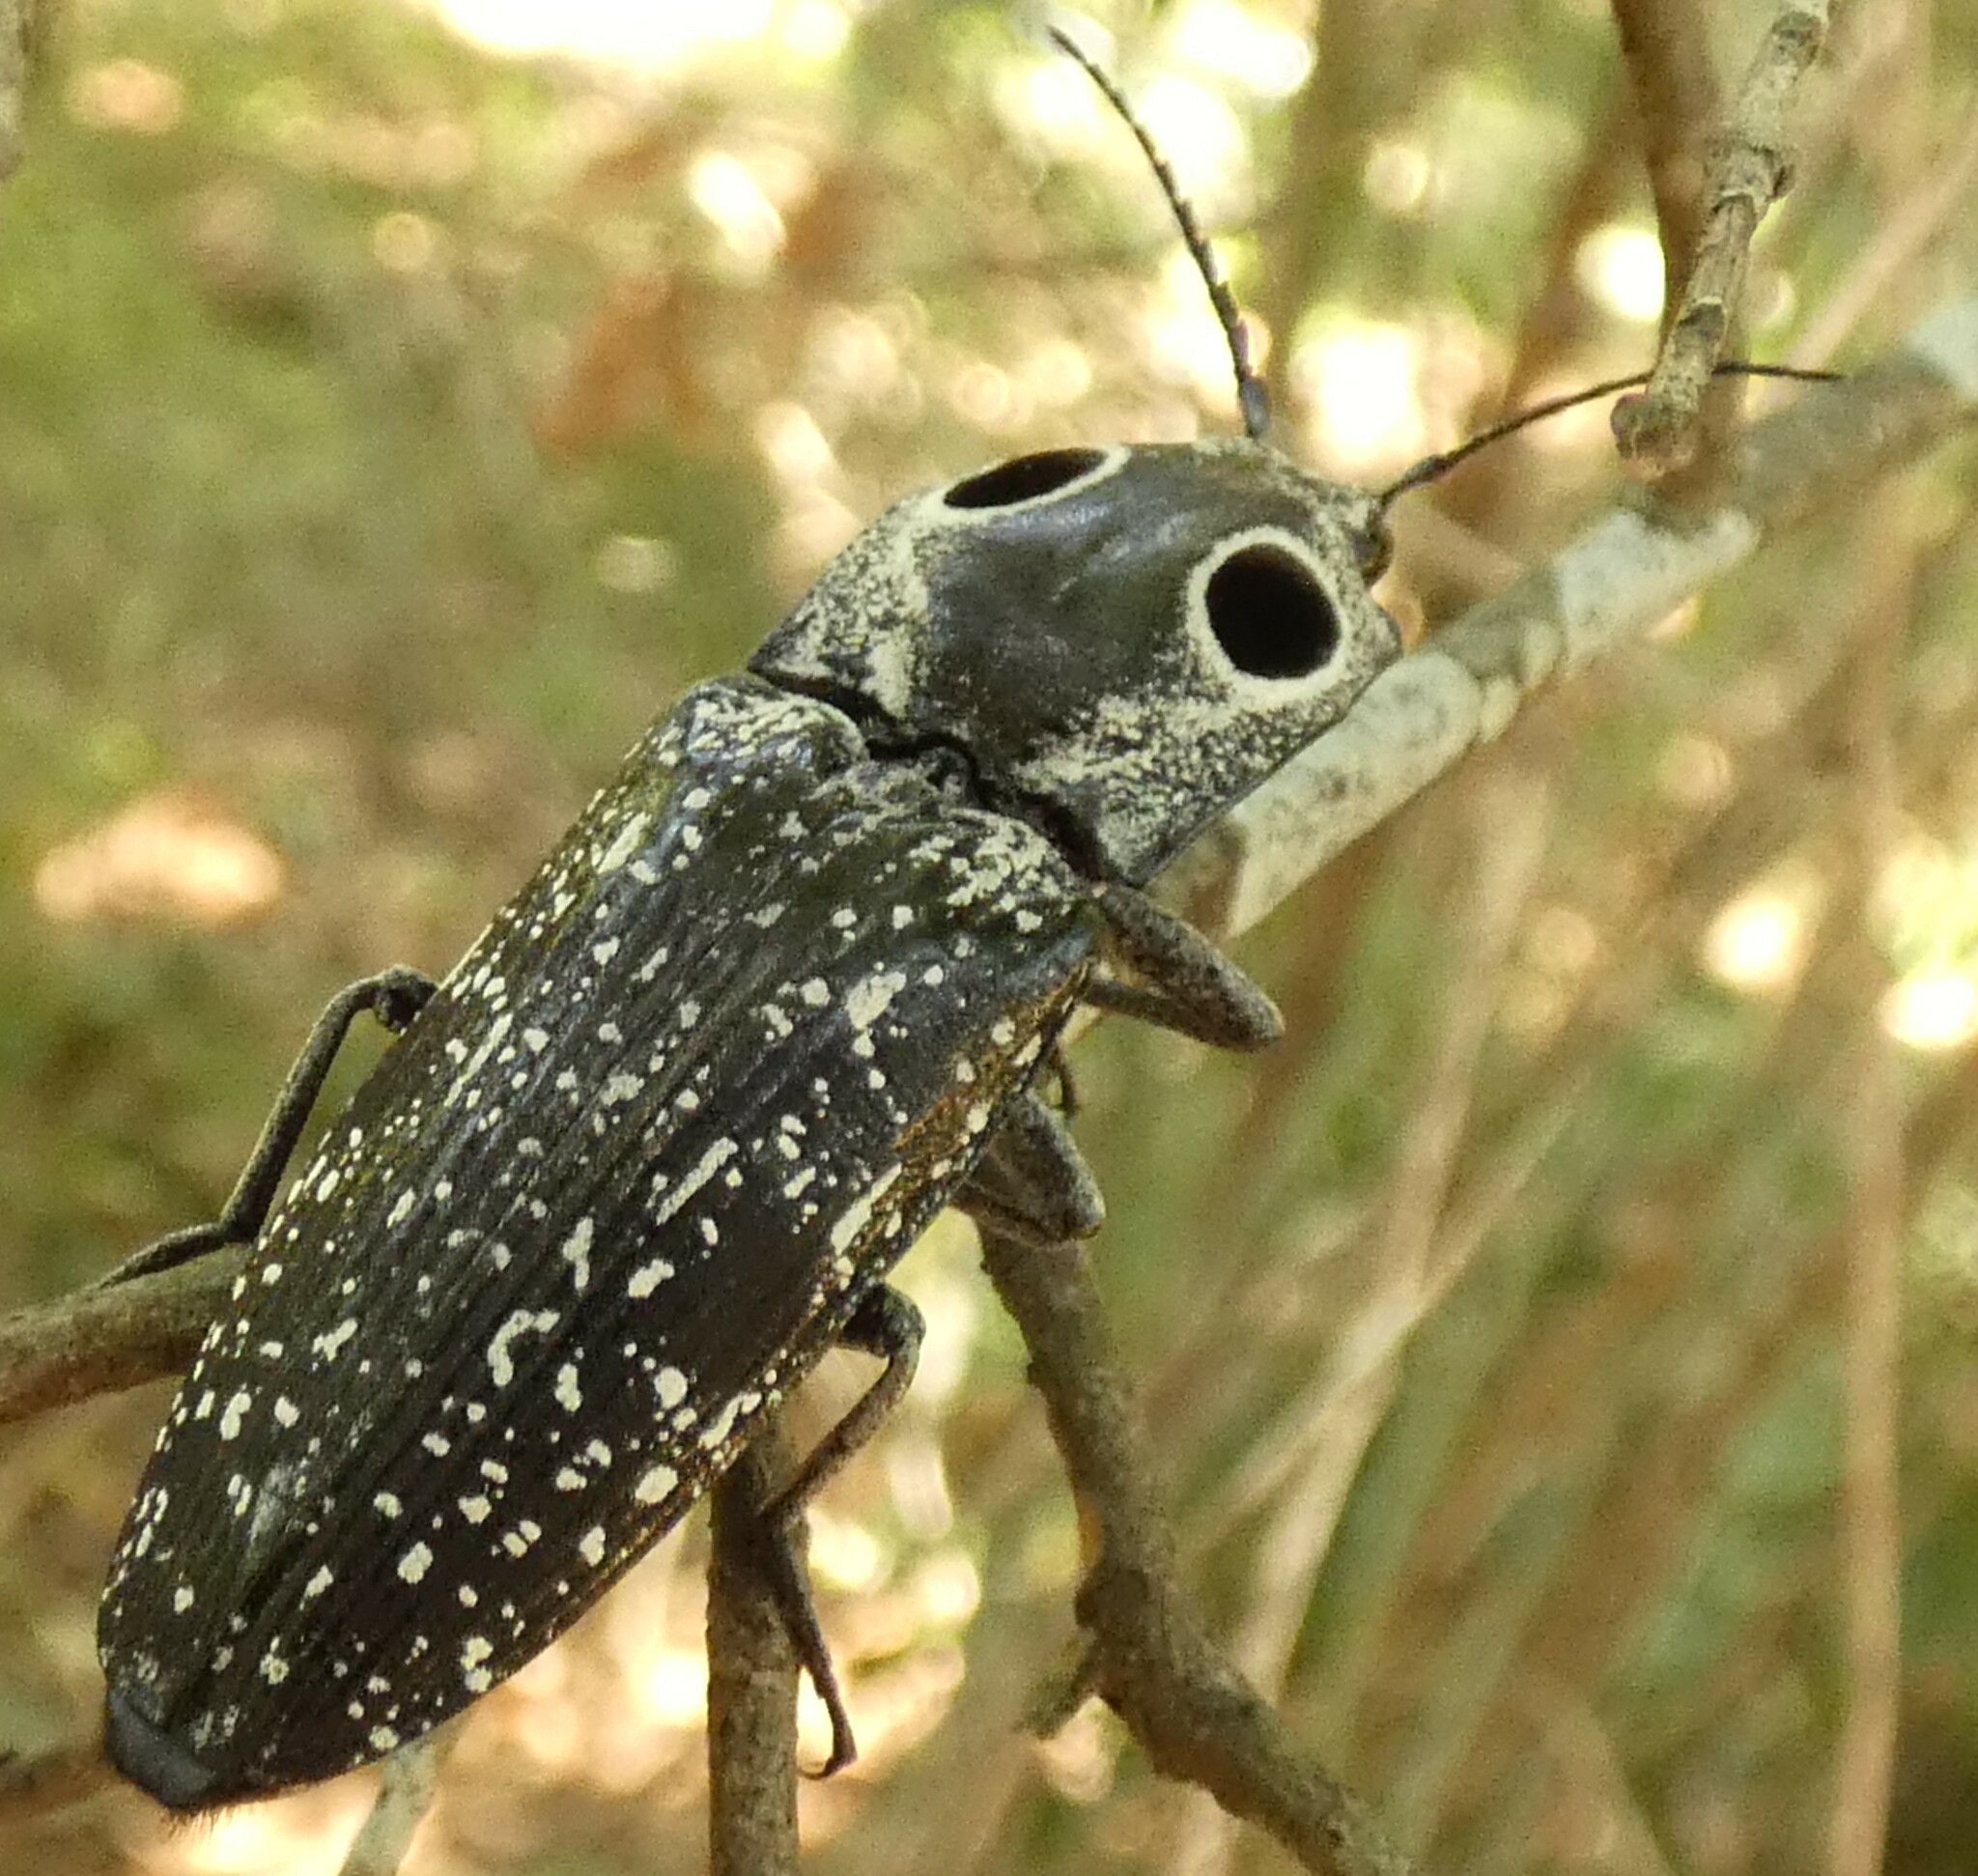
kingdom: Animalia
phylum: Arthropoda
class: Insecta
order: Coleoptera
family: Elateridae
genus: Alaus
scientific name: Alaus oculatus
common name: Eastern eyed click beetle
